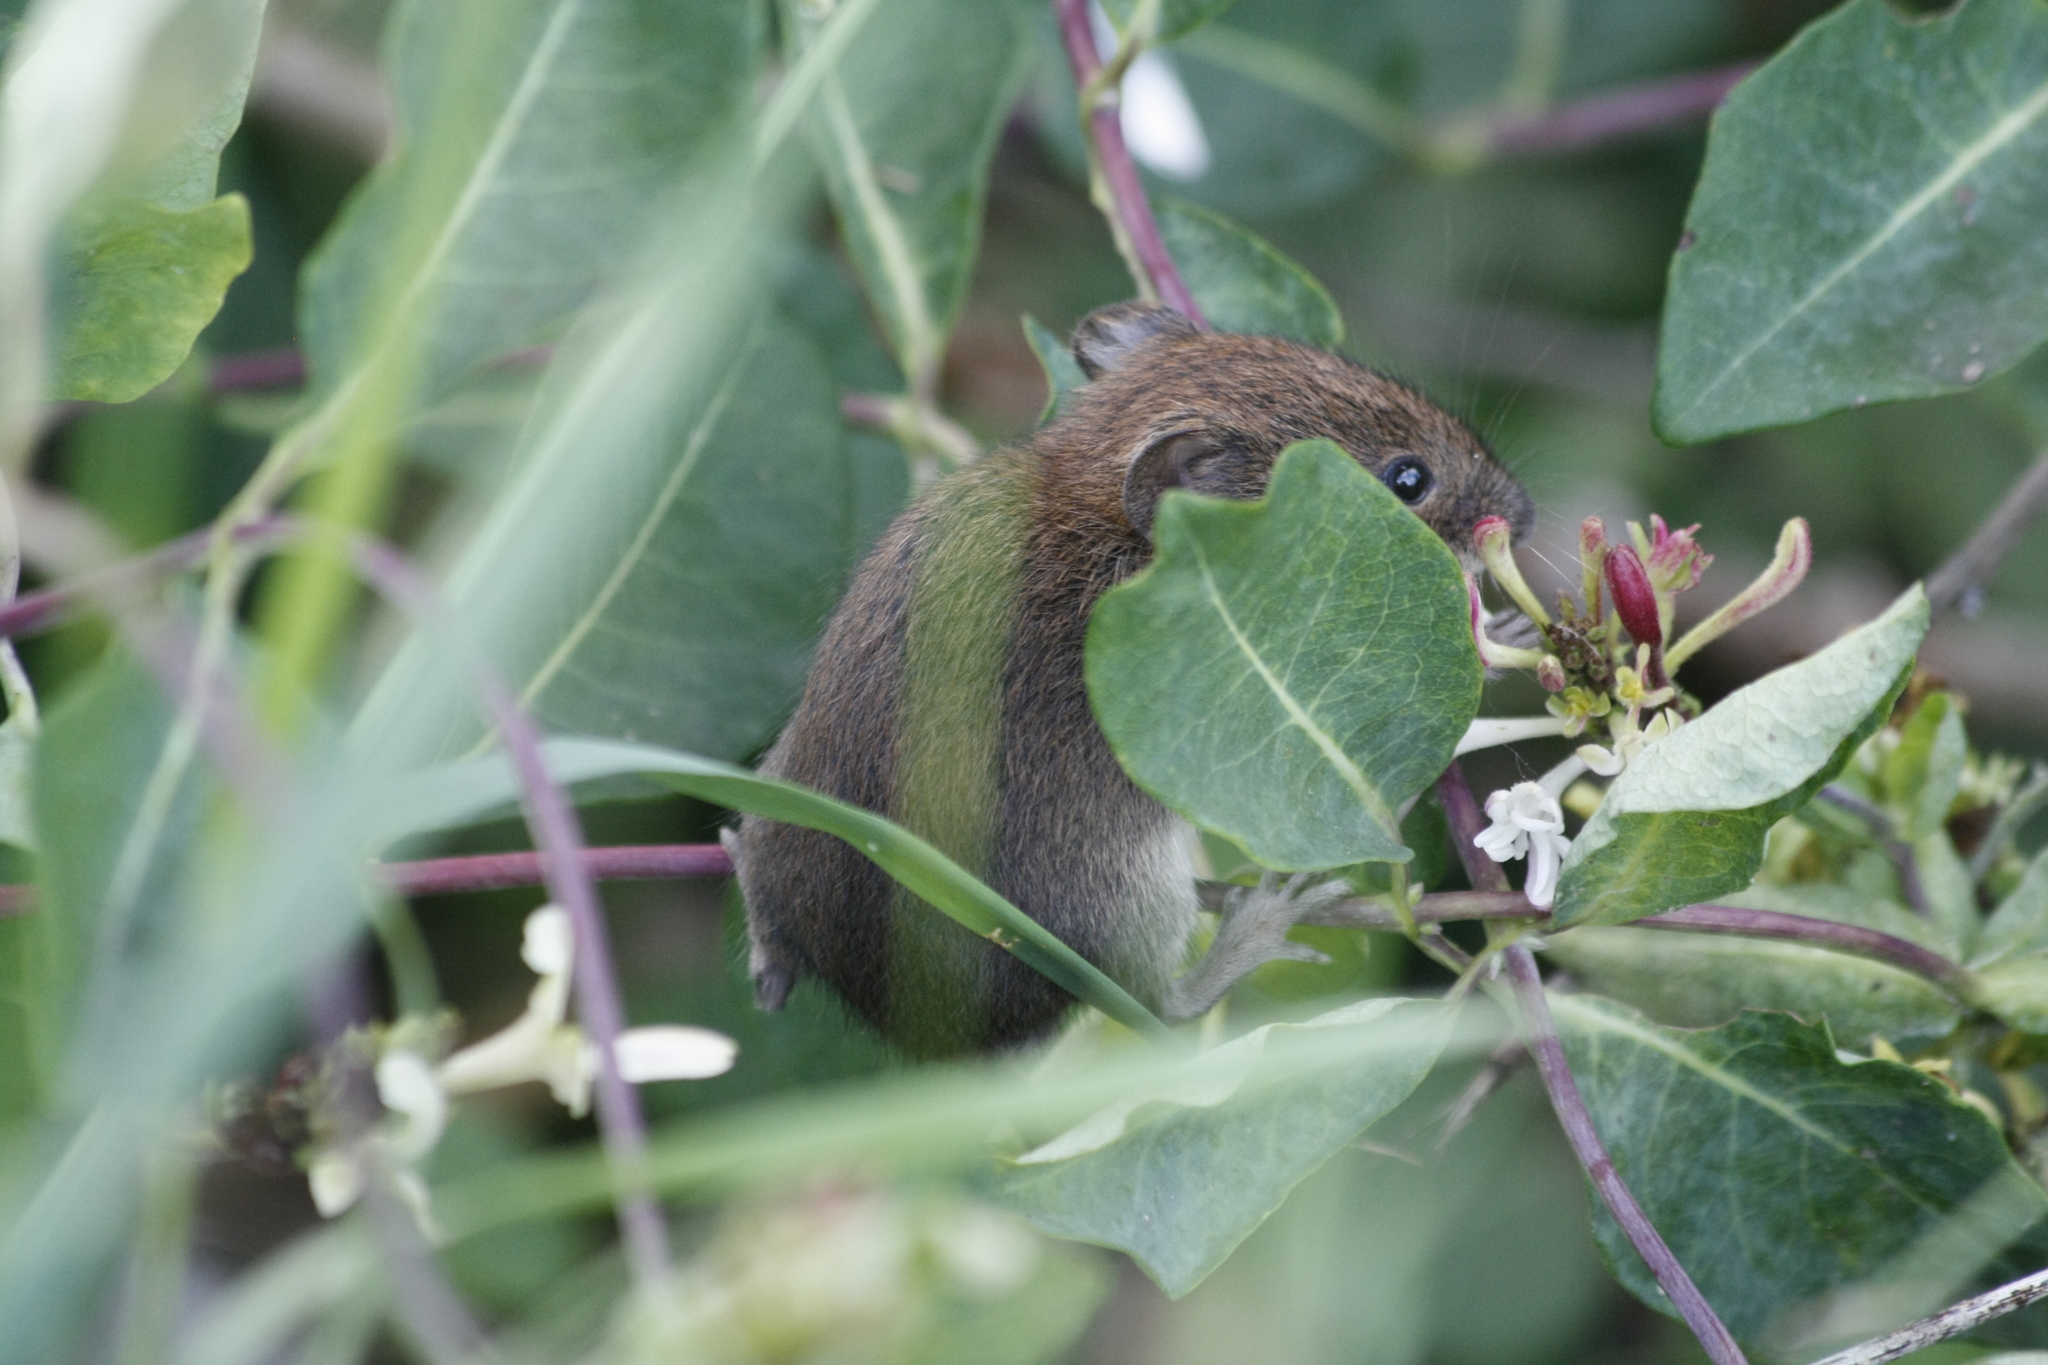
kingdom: Animalia
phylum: Chordata
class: Mammalia
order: Rodentia
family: Cricetidae
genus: Myodes
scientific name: Myodes glareolus
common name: Bank vole
